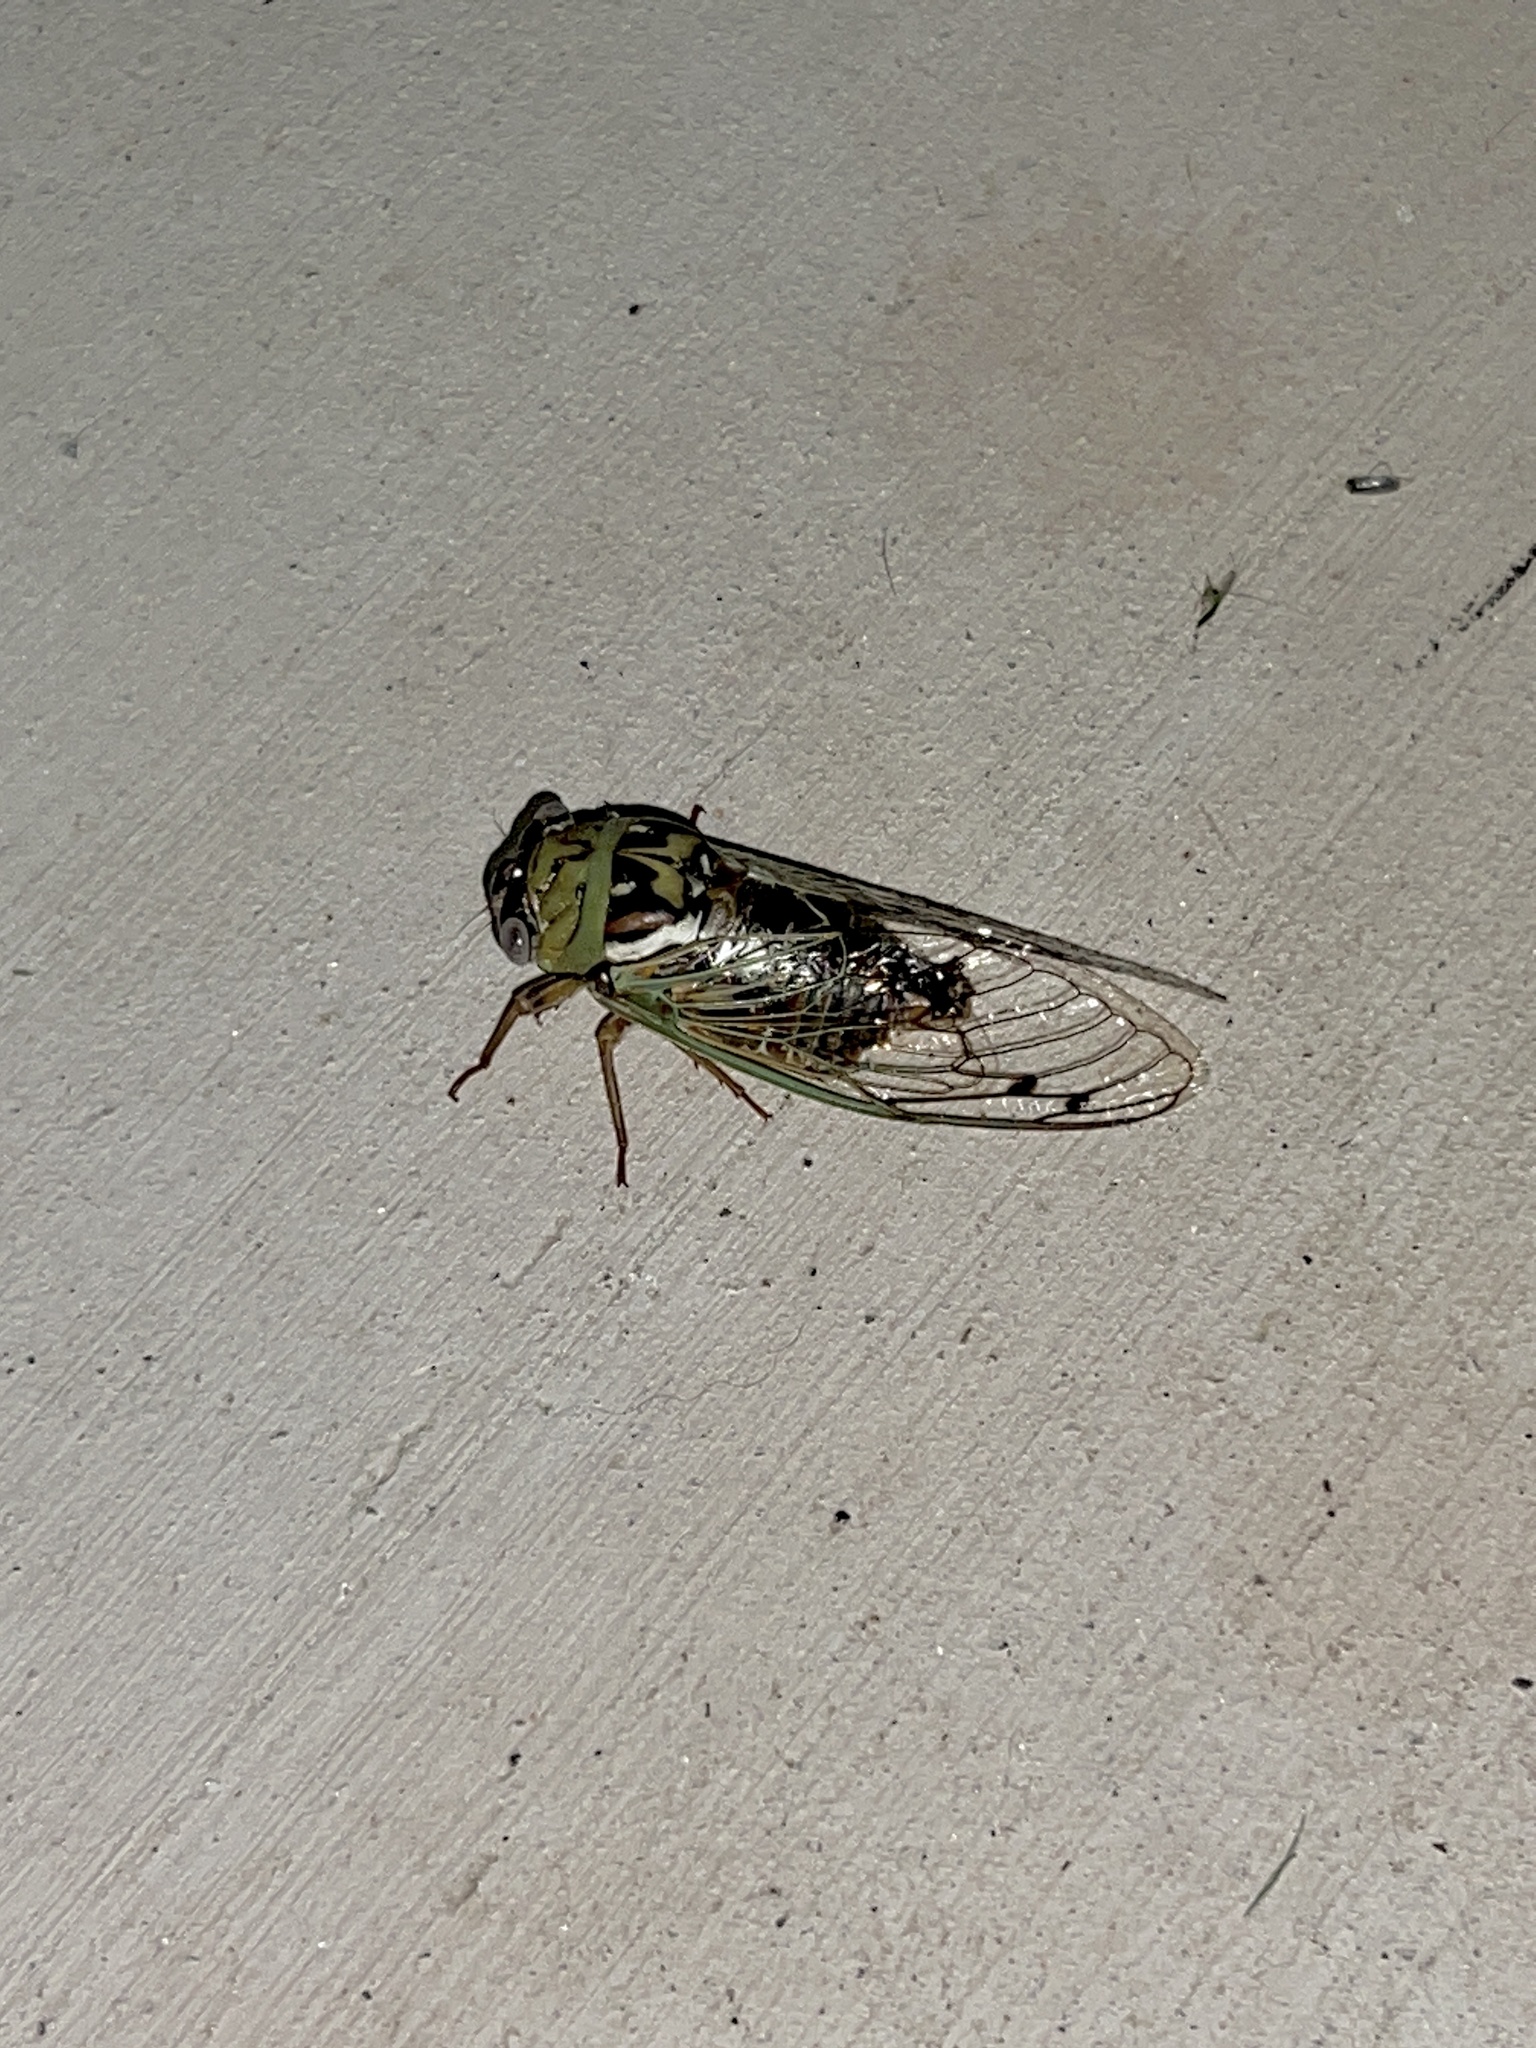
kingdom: Animalia
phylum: Arthropoda
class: Insecta
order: Hemiptera
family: Cicadidae
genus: Megatibicen
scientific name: Megatibicen resh
